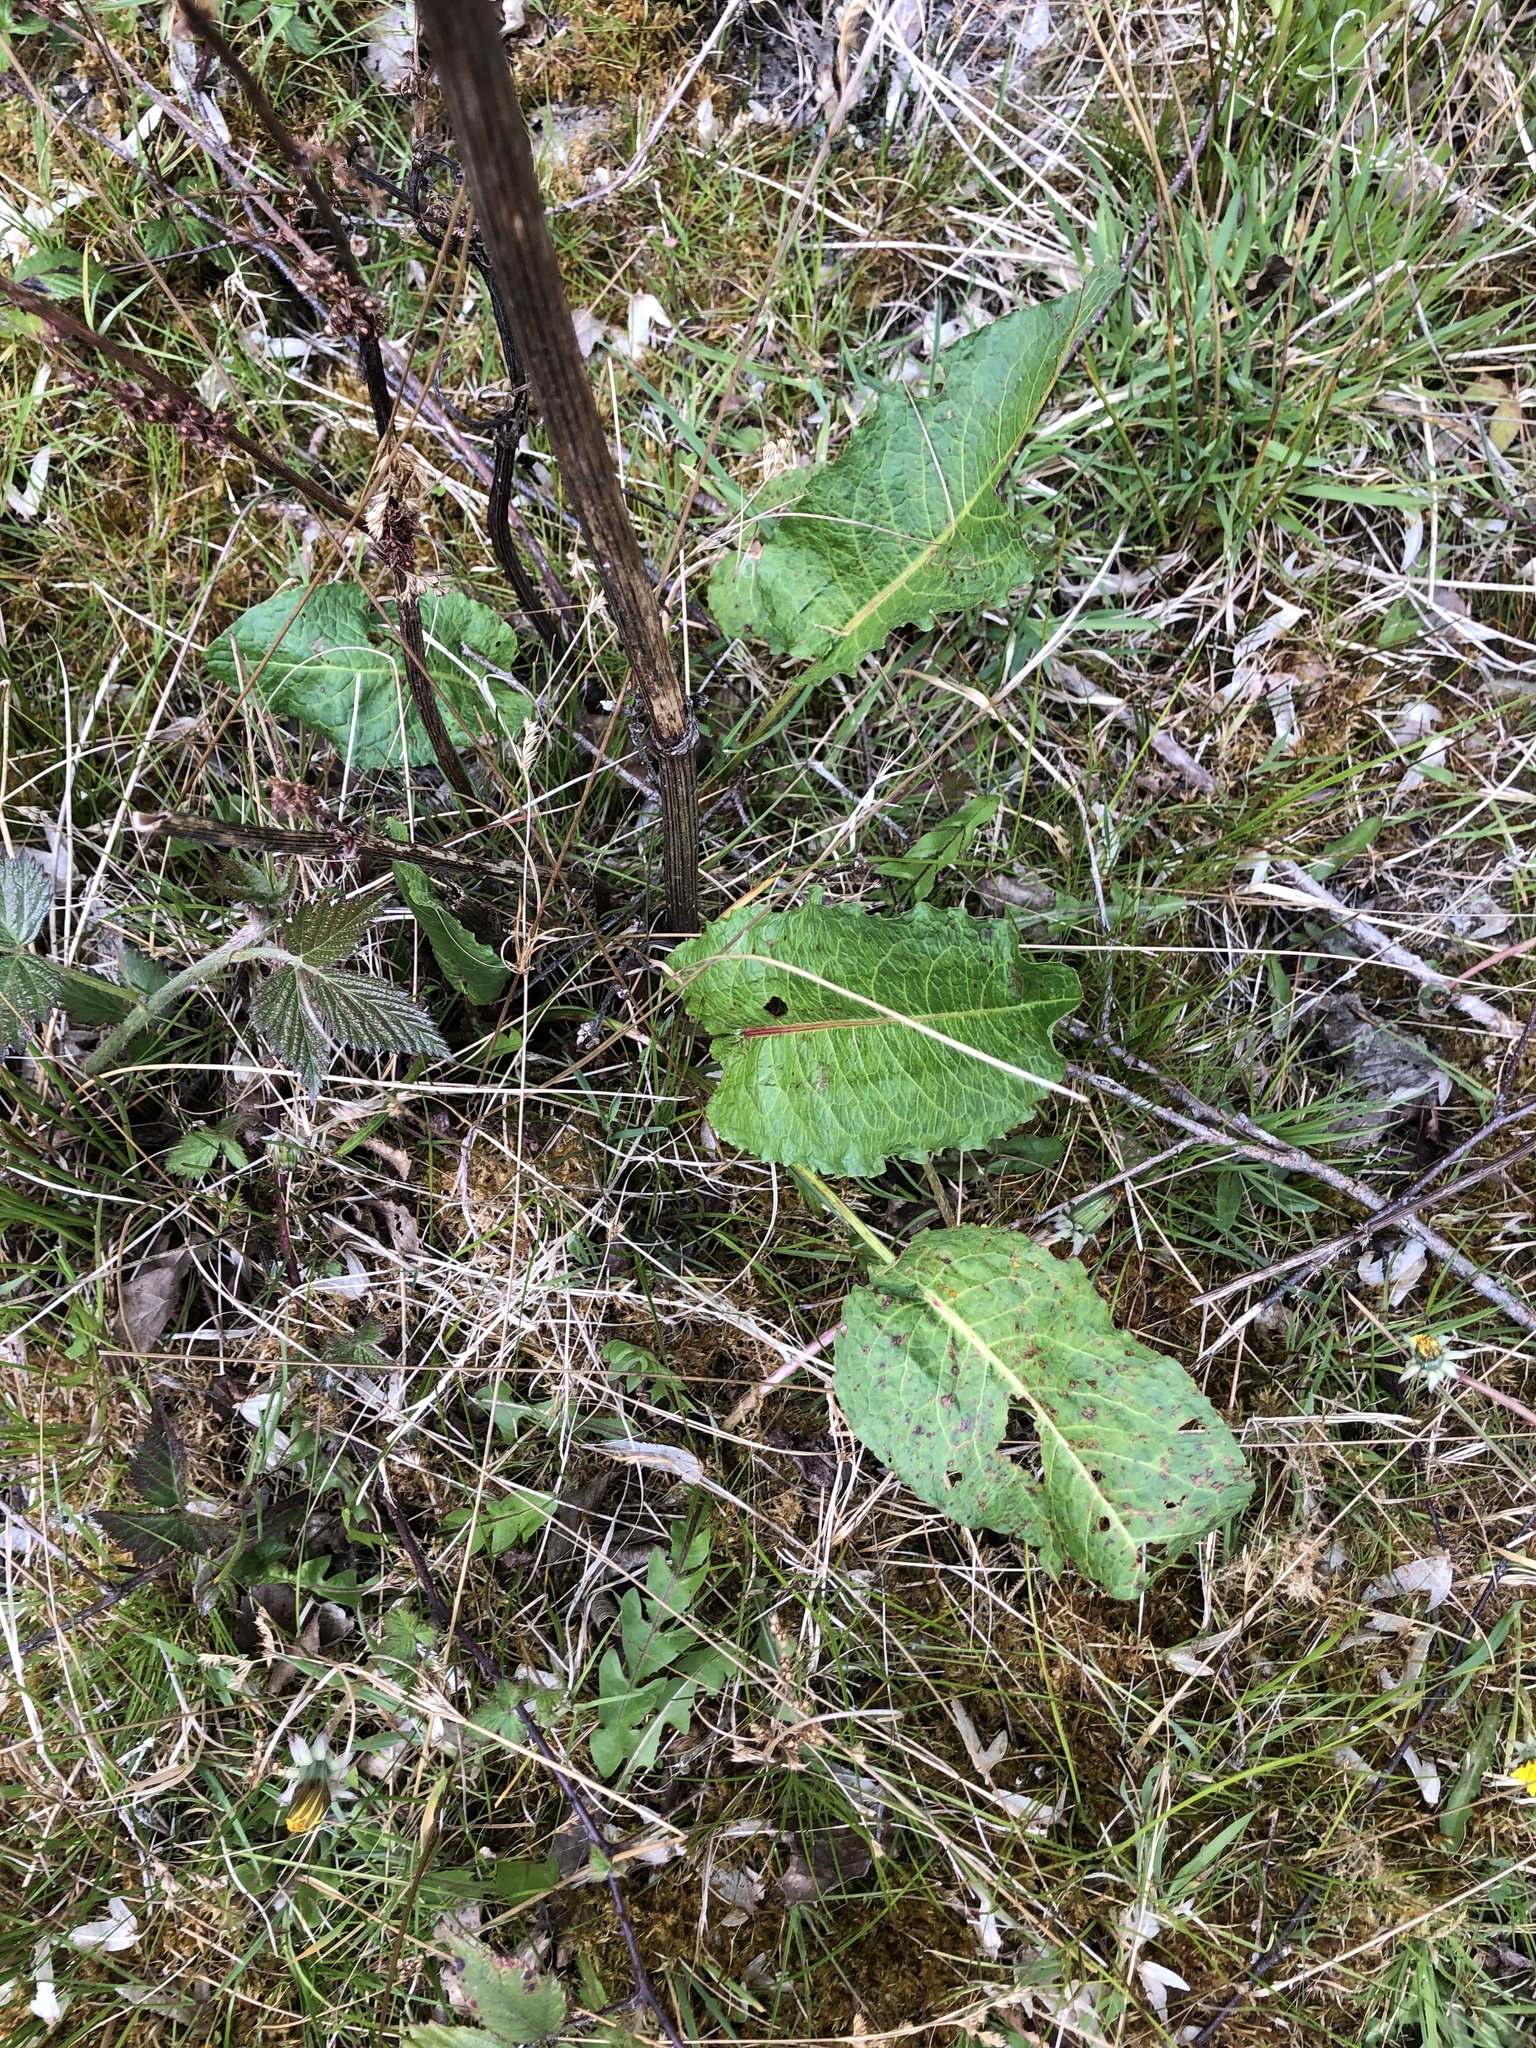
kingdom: Plantae
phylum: Tracheophyta
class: Magnoliopsida
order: Caryophyllales
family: Polygonaceae
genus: Rumex
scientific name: Rumex obtusifolius
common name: Bitter dock
